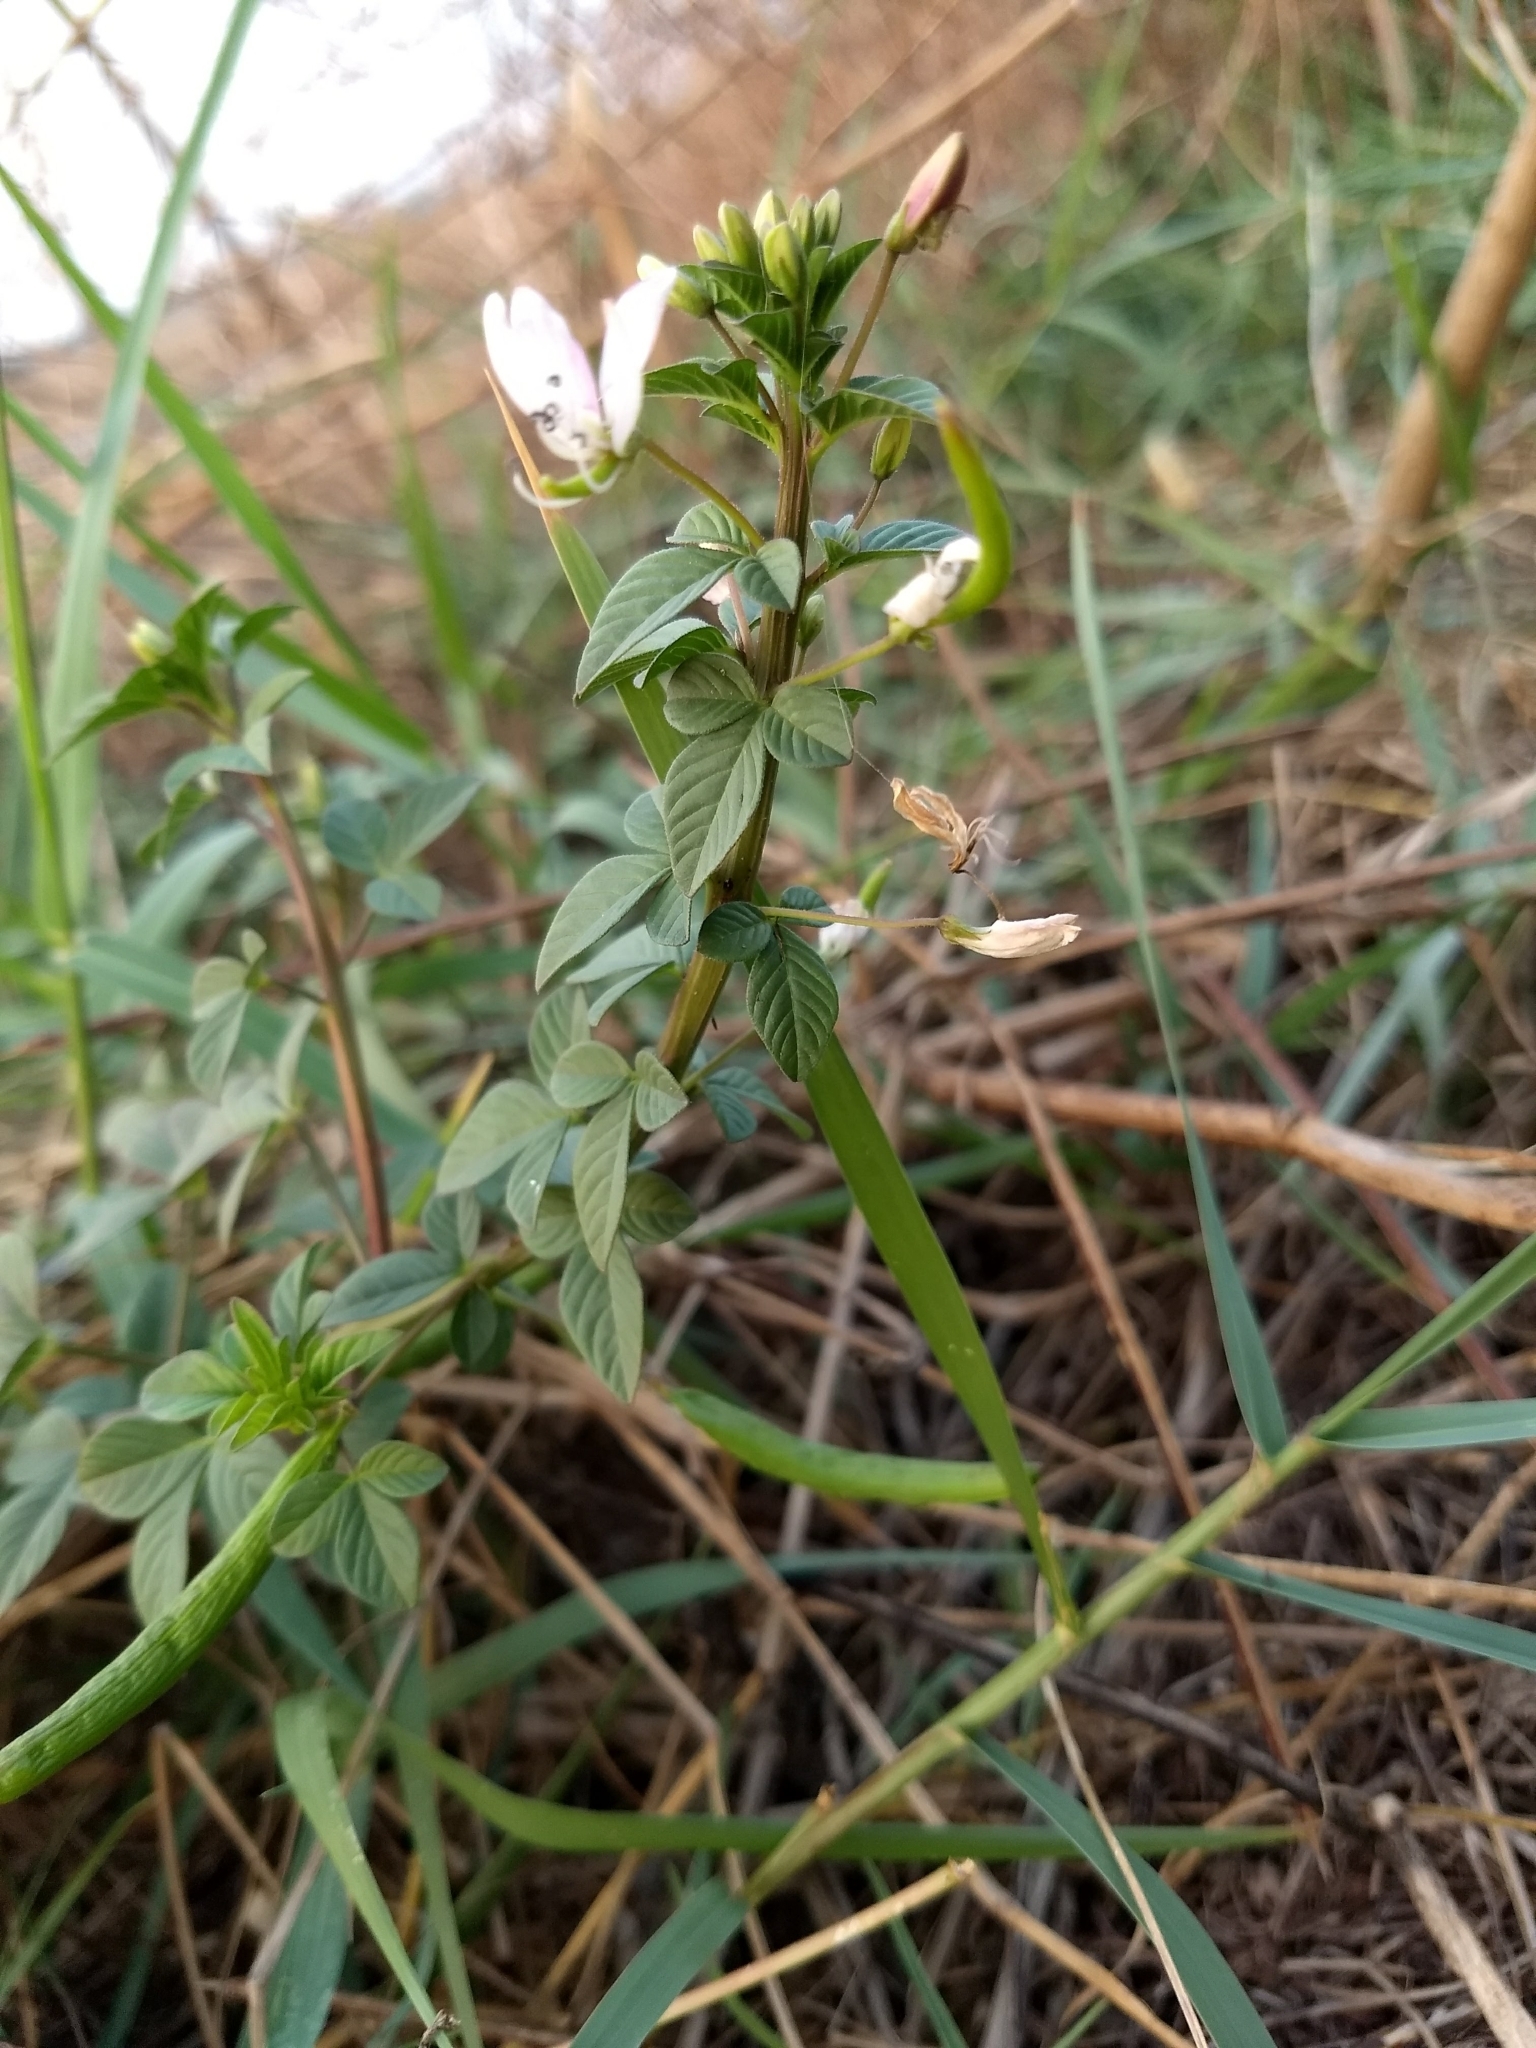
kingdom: Plantae
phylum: Tracheophyta
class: Magnoliopsida
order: Brassicales
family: Cleomaceae
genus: Sieruela
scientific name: Sieruela rutidosperma
